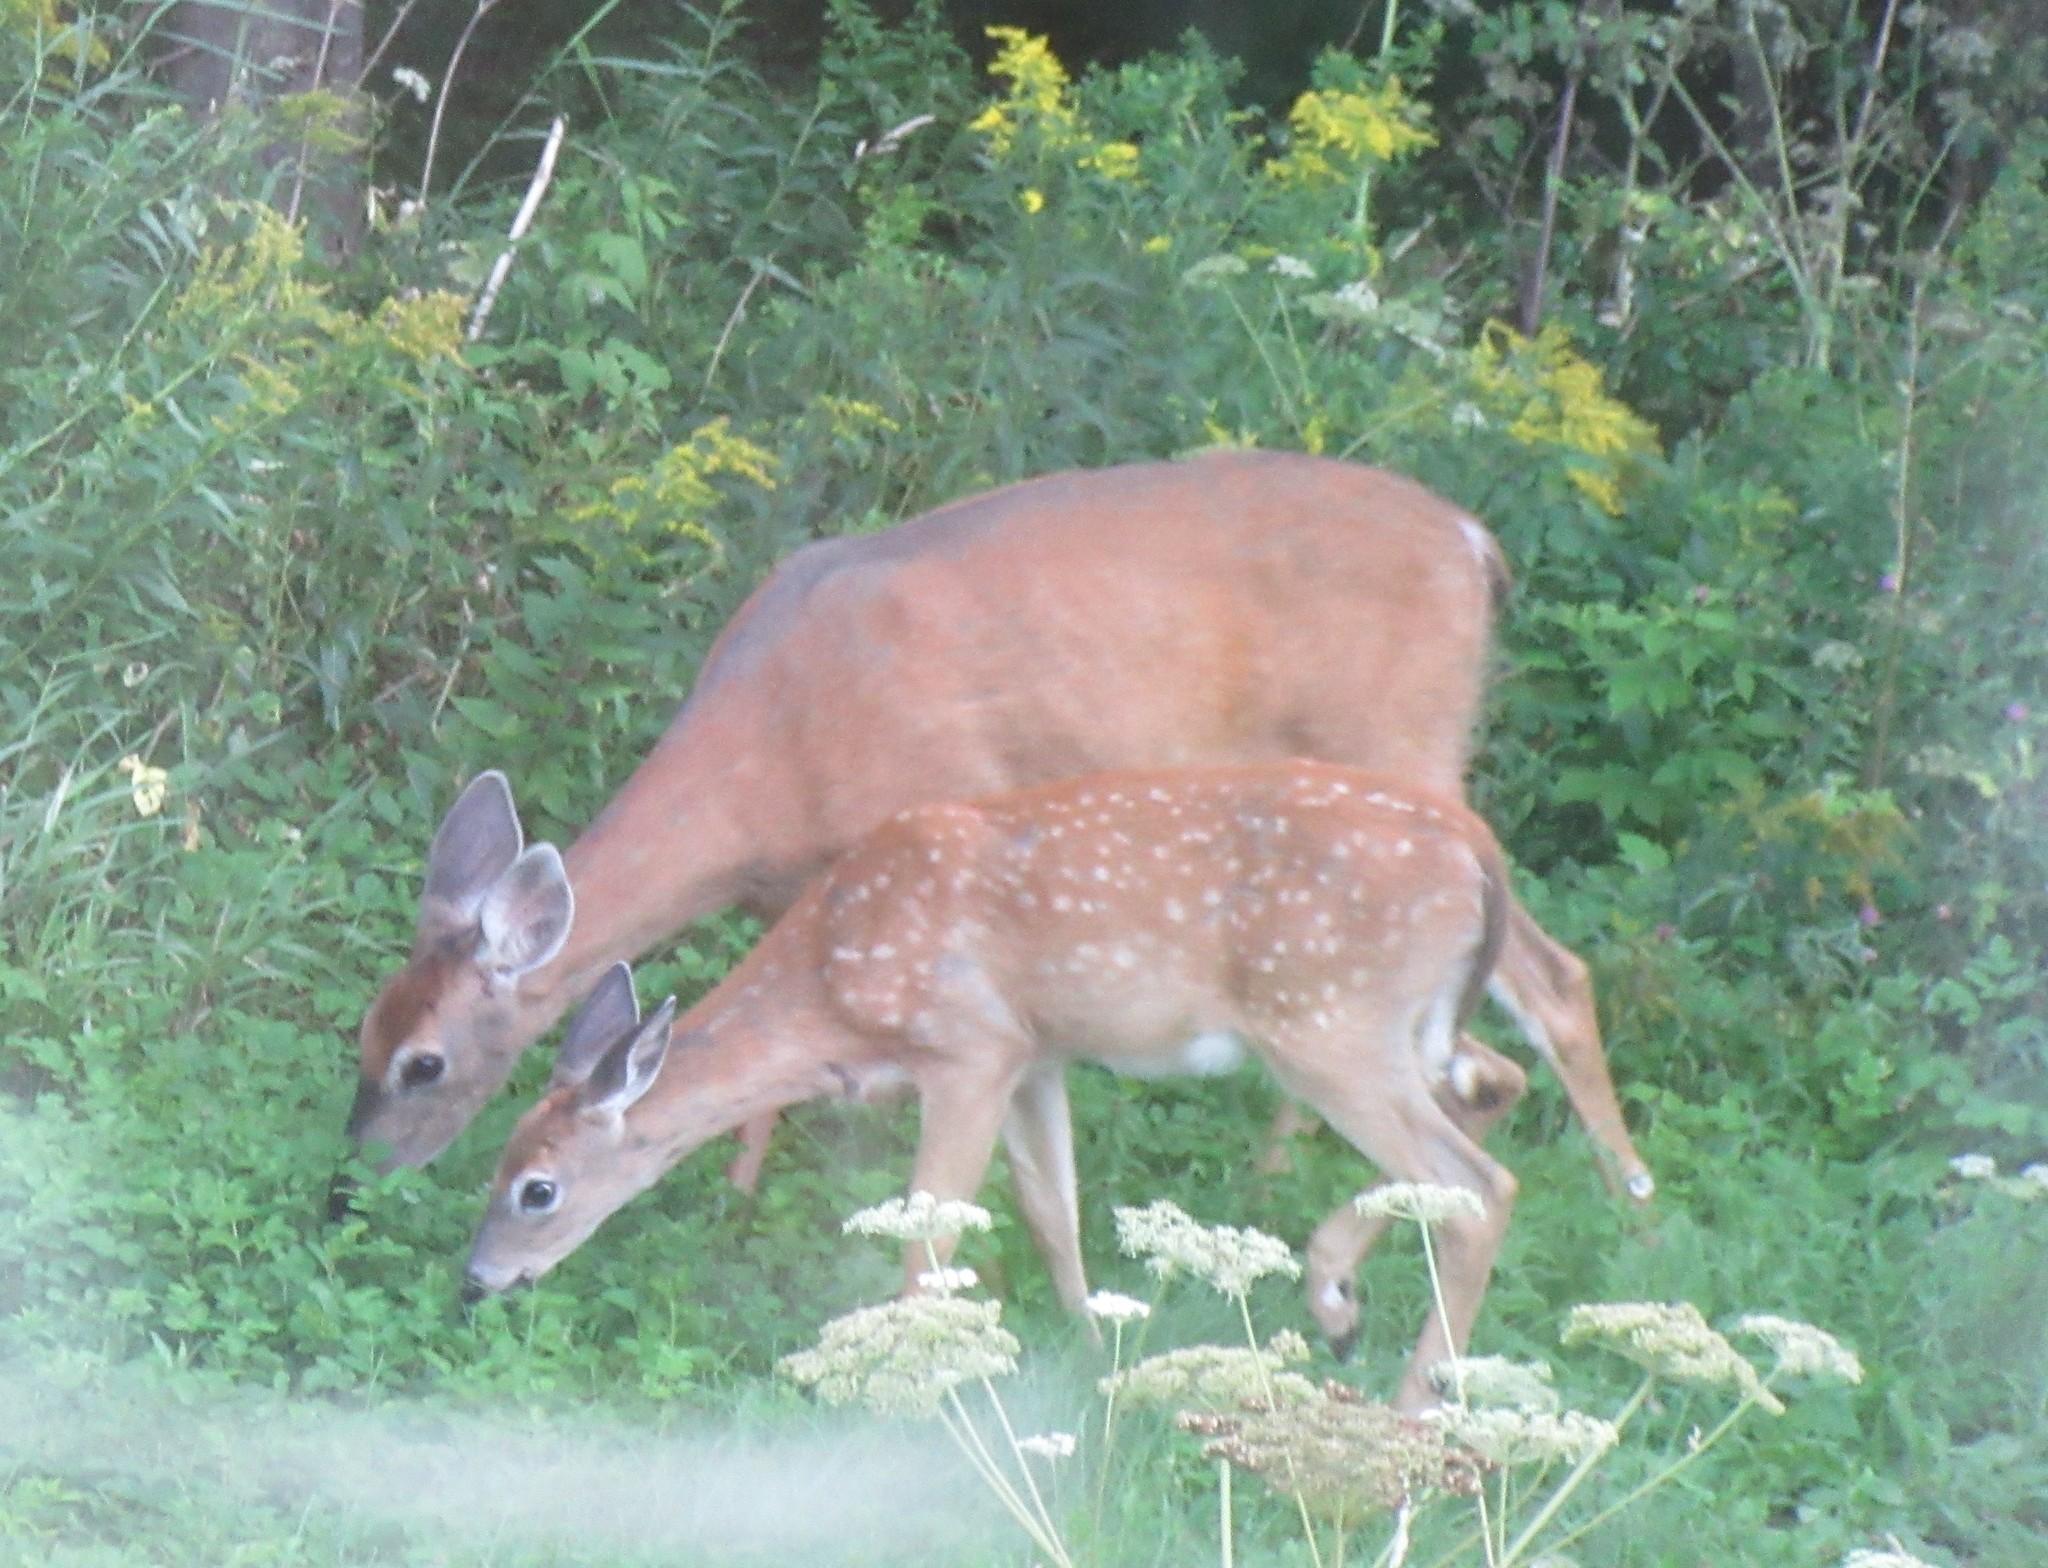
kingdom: Animalia
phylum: Chordata
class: Mammalia
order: Artiodactyla
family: Cervidae
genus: Odocoileus
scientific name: Odocoileus virginianus
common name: White-tailed deer
